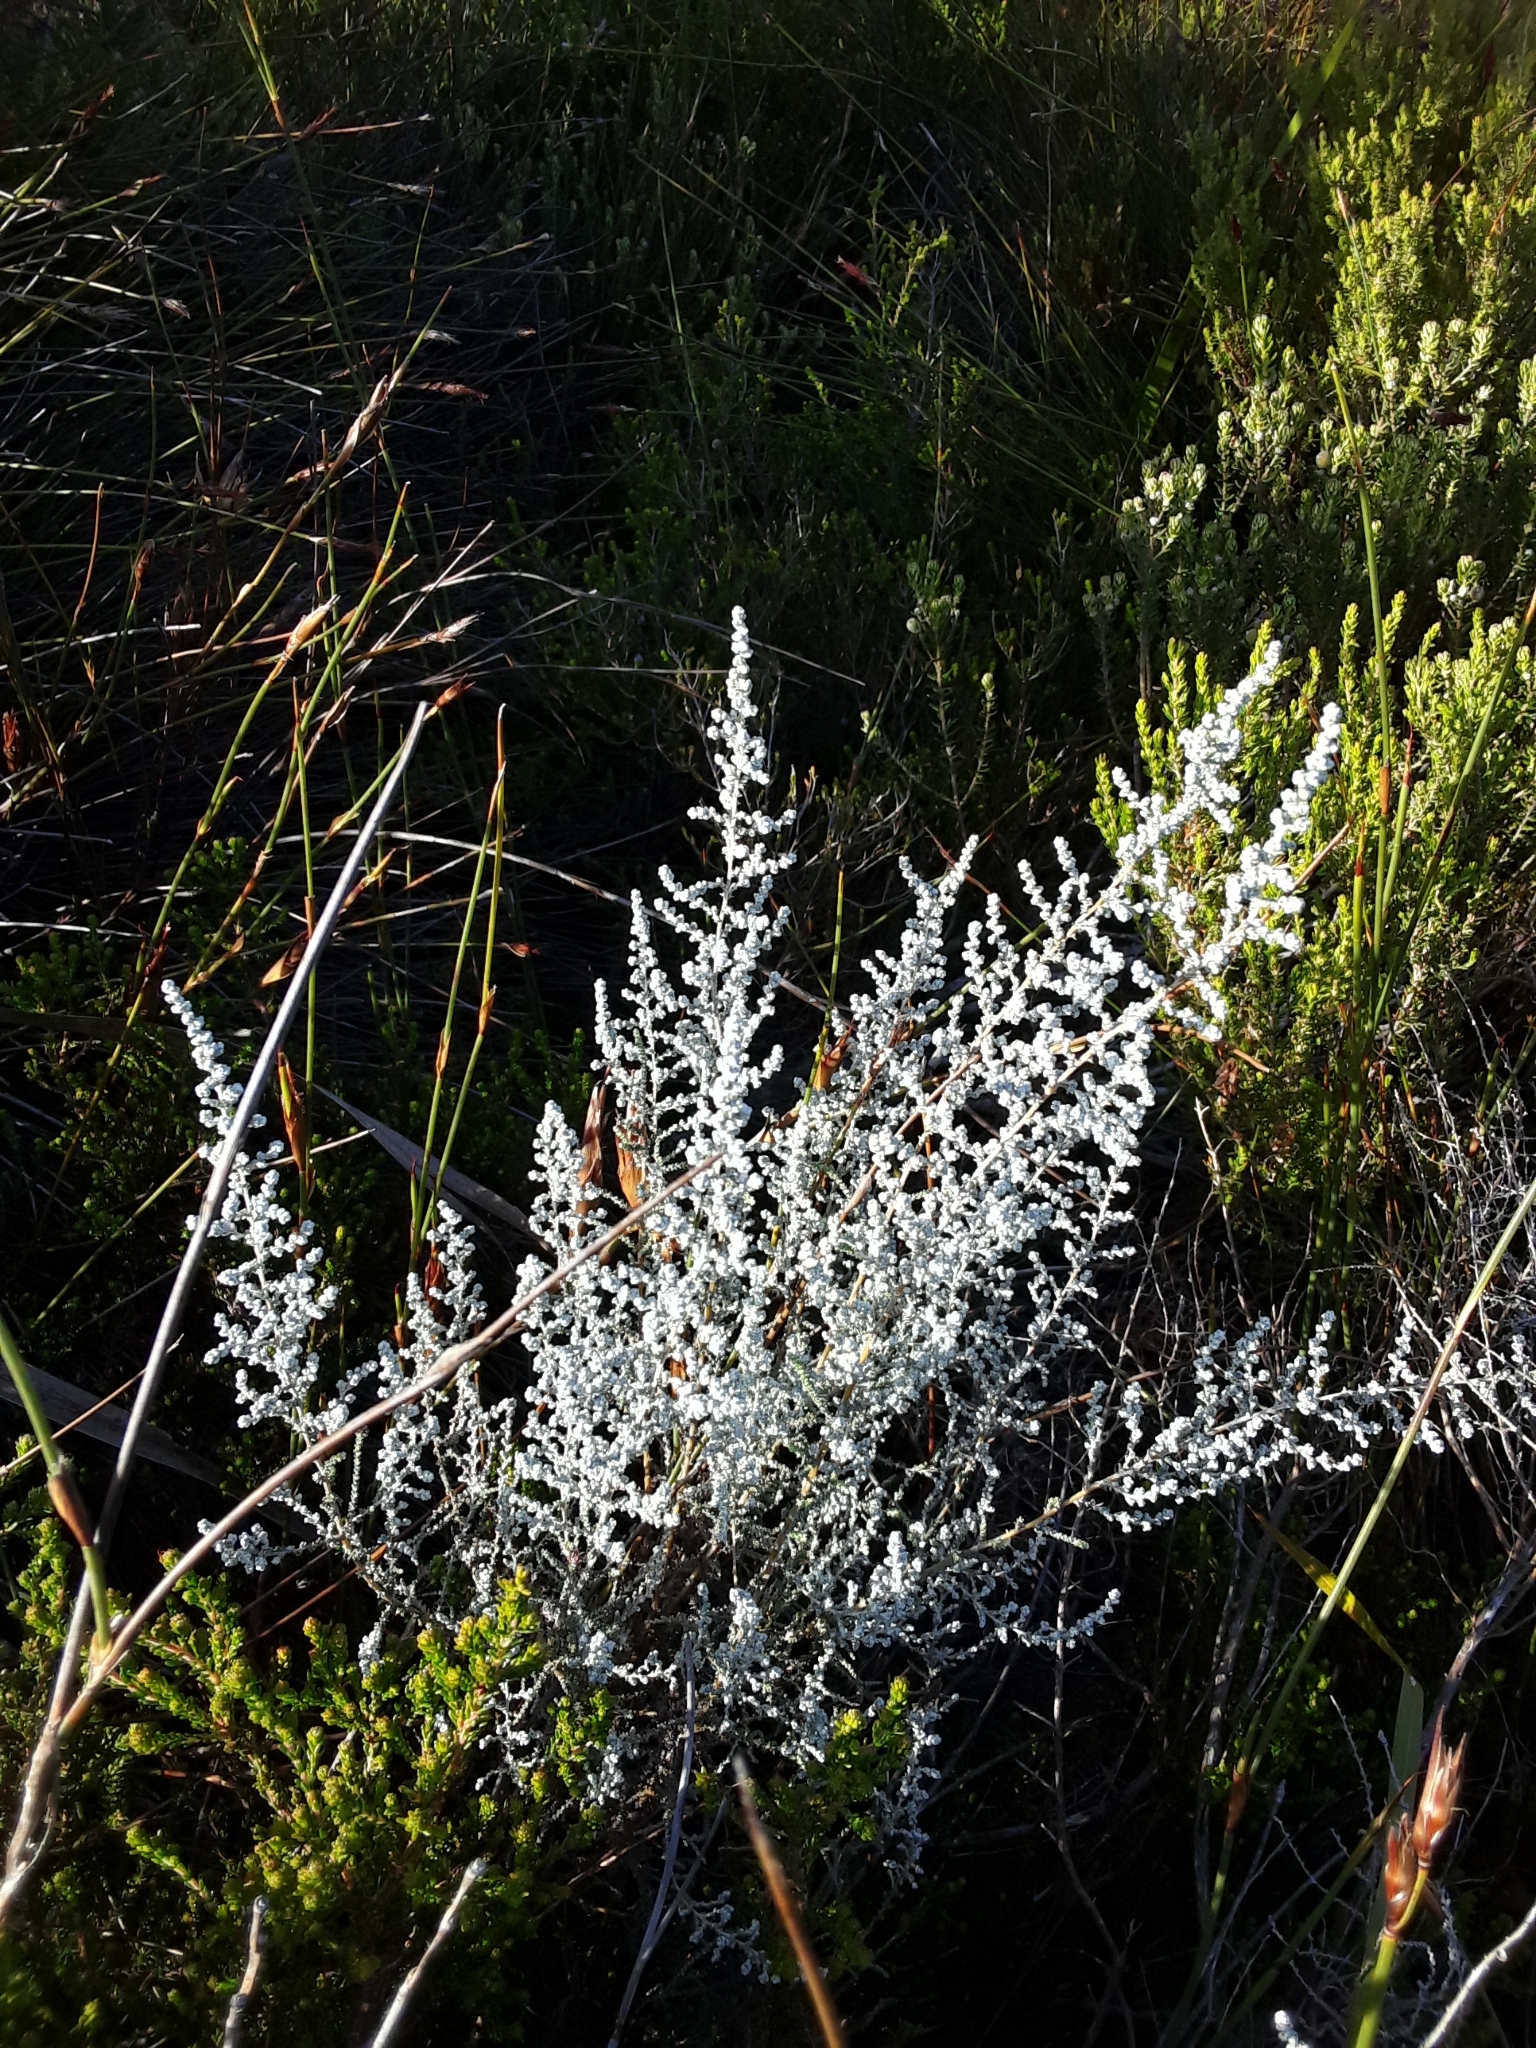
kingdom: Plantae
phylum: Tracheophyta
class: Magnoliopsida
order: Asterales
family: Asteraceae
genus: Seriphium
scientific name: Seriphium plumosum
